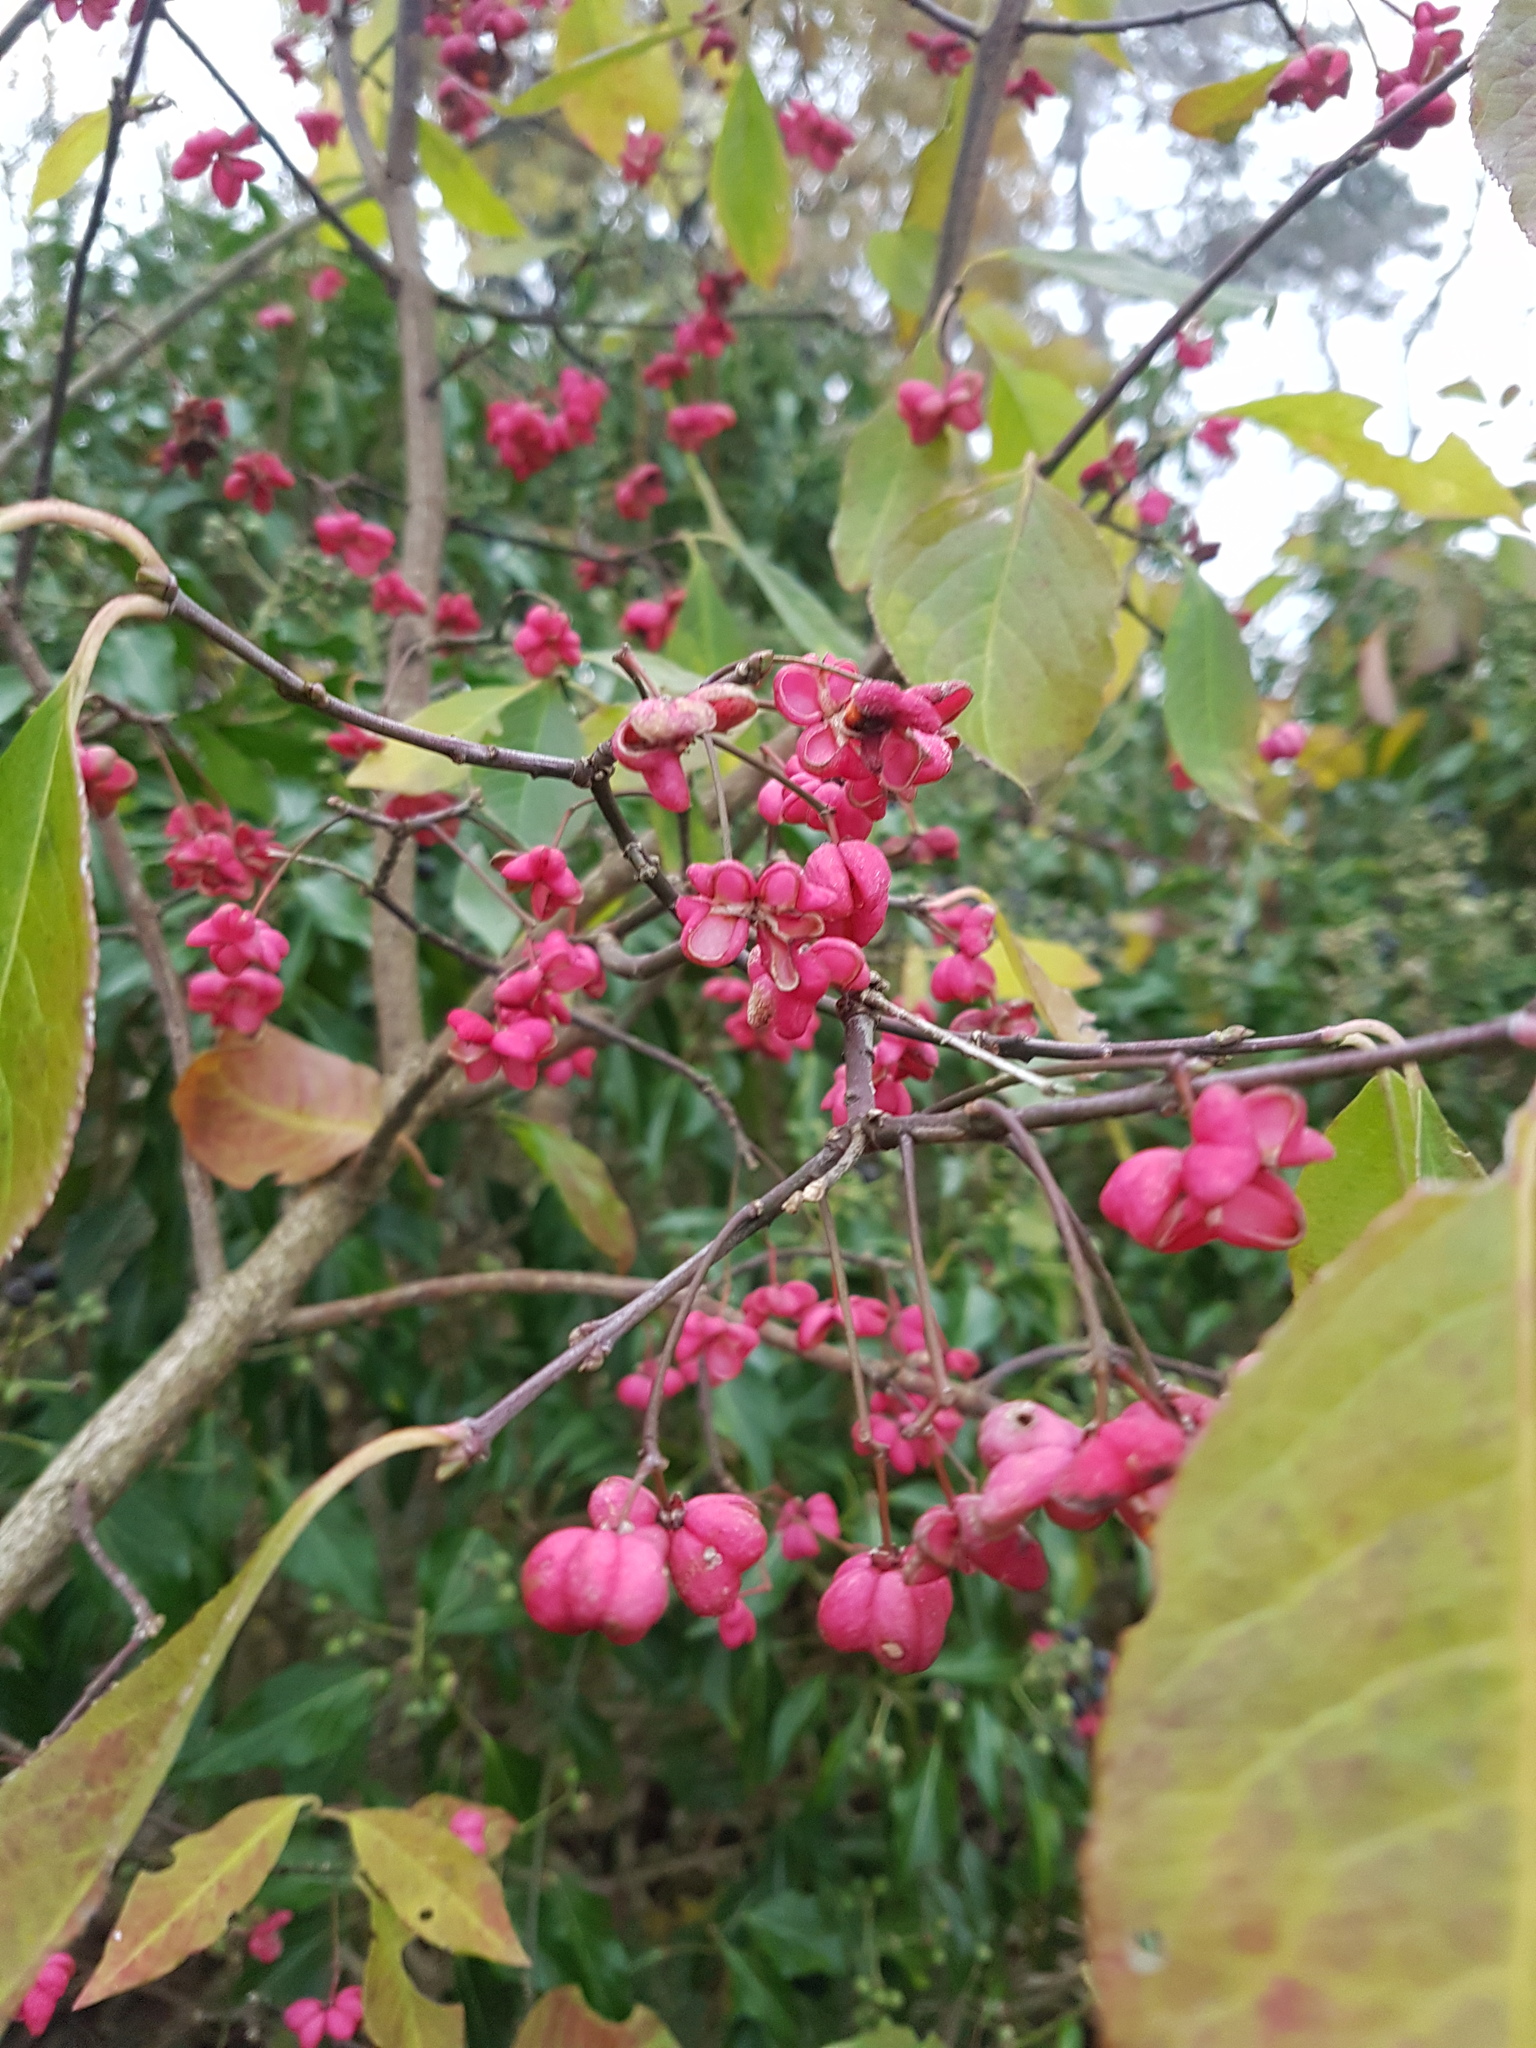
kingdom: Plantae
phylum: Tracheophyta
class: Magnoliopsida
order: Celastrales
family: Celastraceae
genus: Euonymus
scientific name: Euonymus europaeus
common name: Spindle
